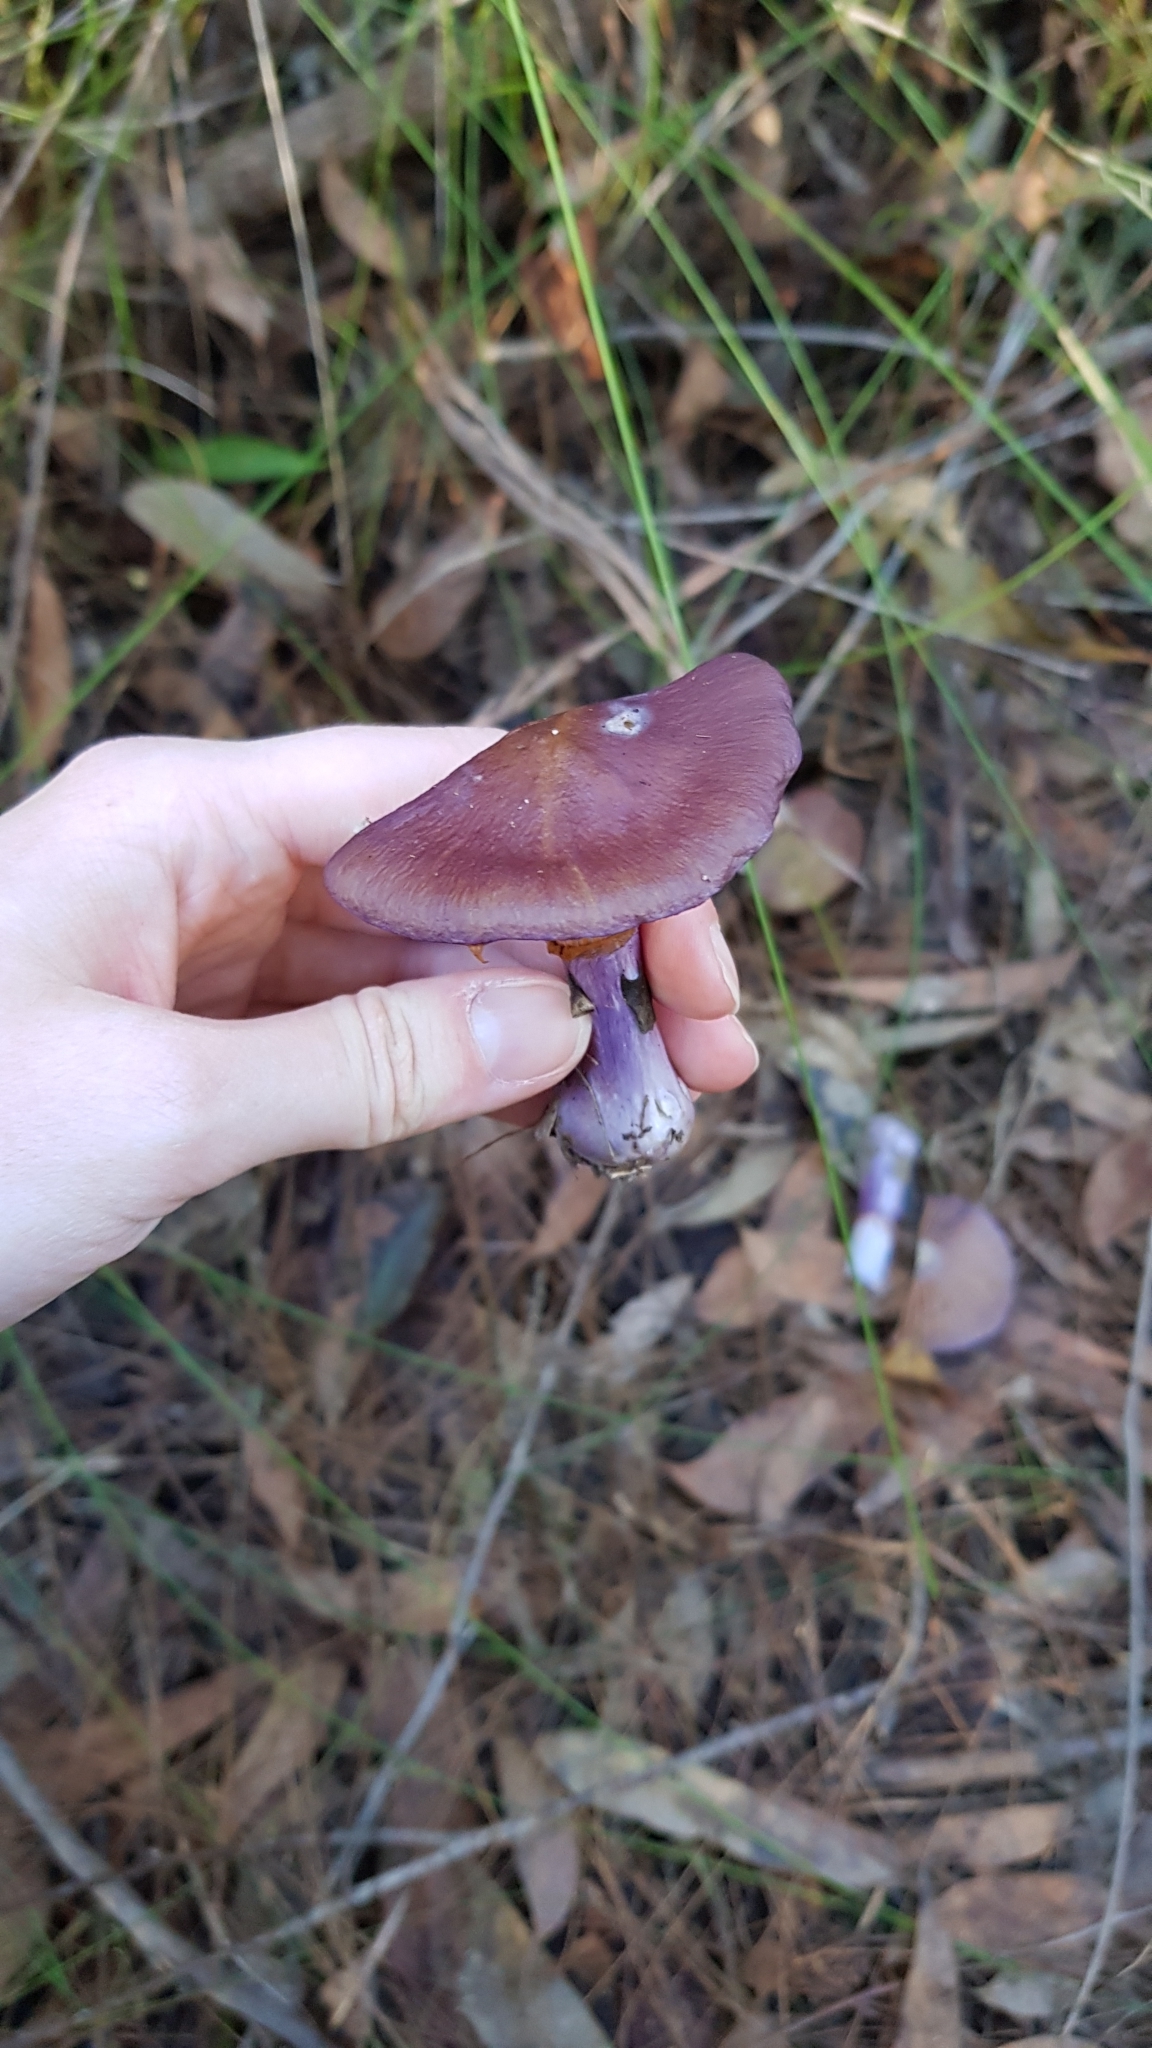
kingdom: Fungi
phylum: Basidiomycota
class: Agaricomycetes
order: Agaricales
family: Cortinariaceae
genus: Cortinarius
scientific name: Cortinarius archeri
